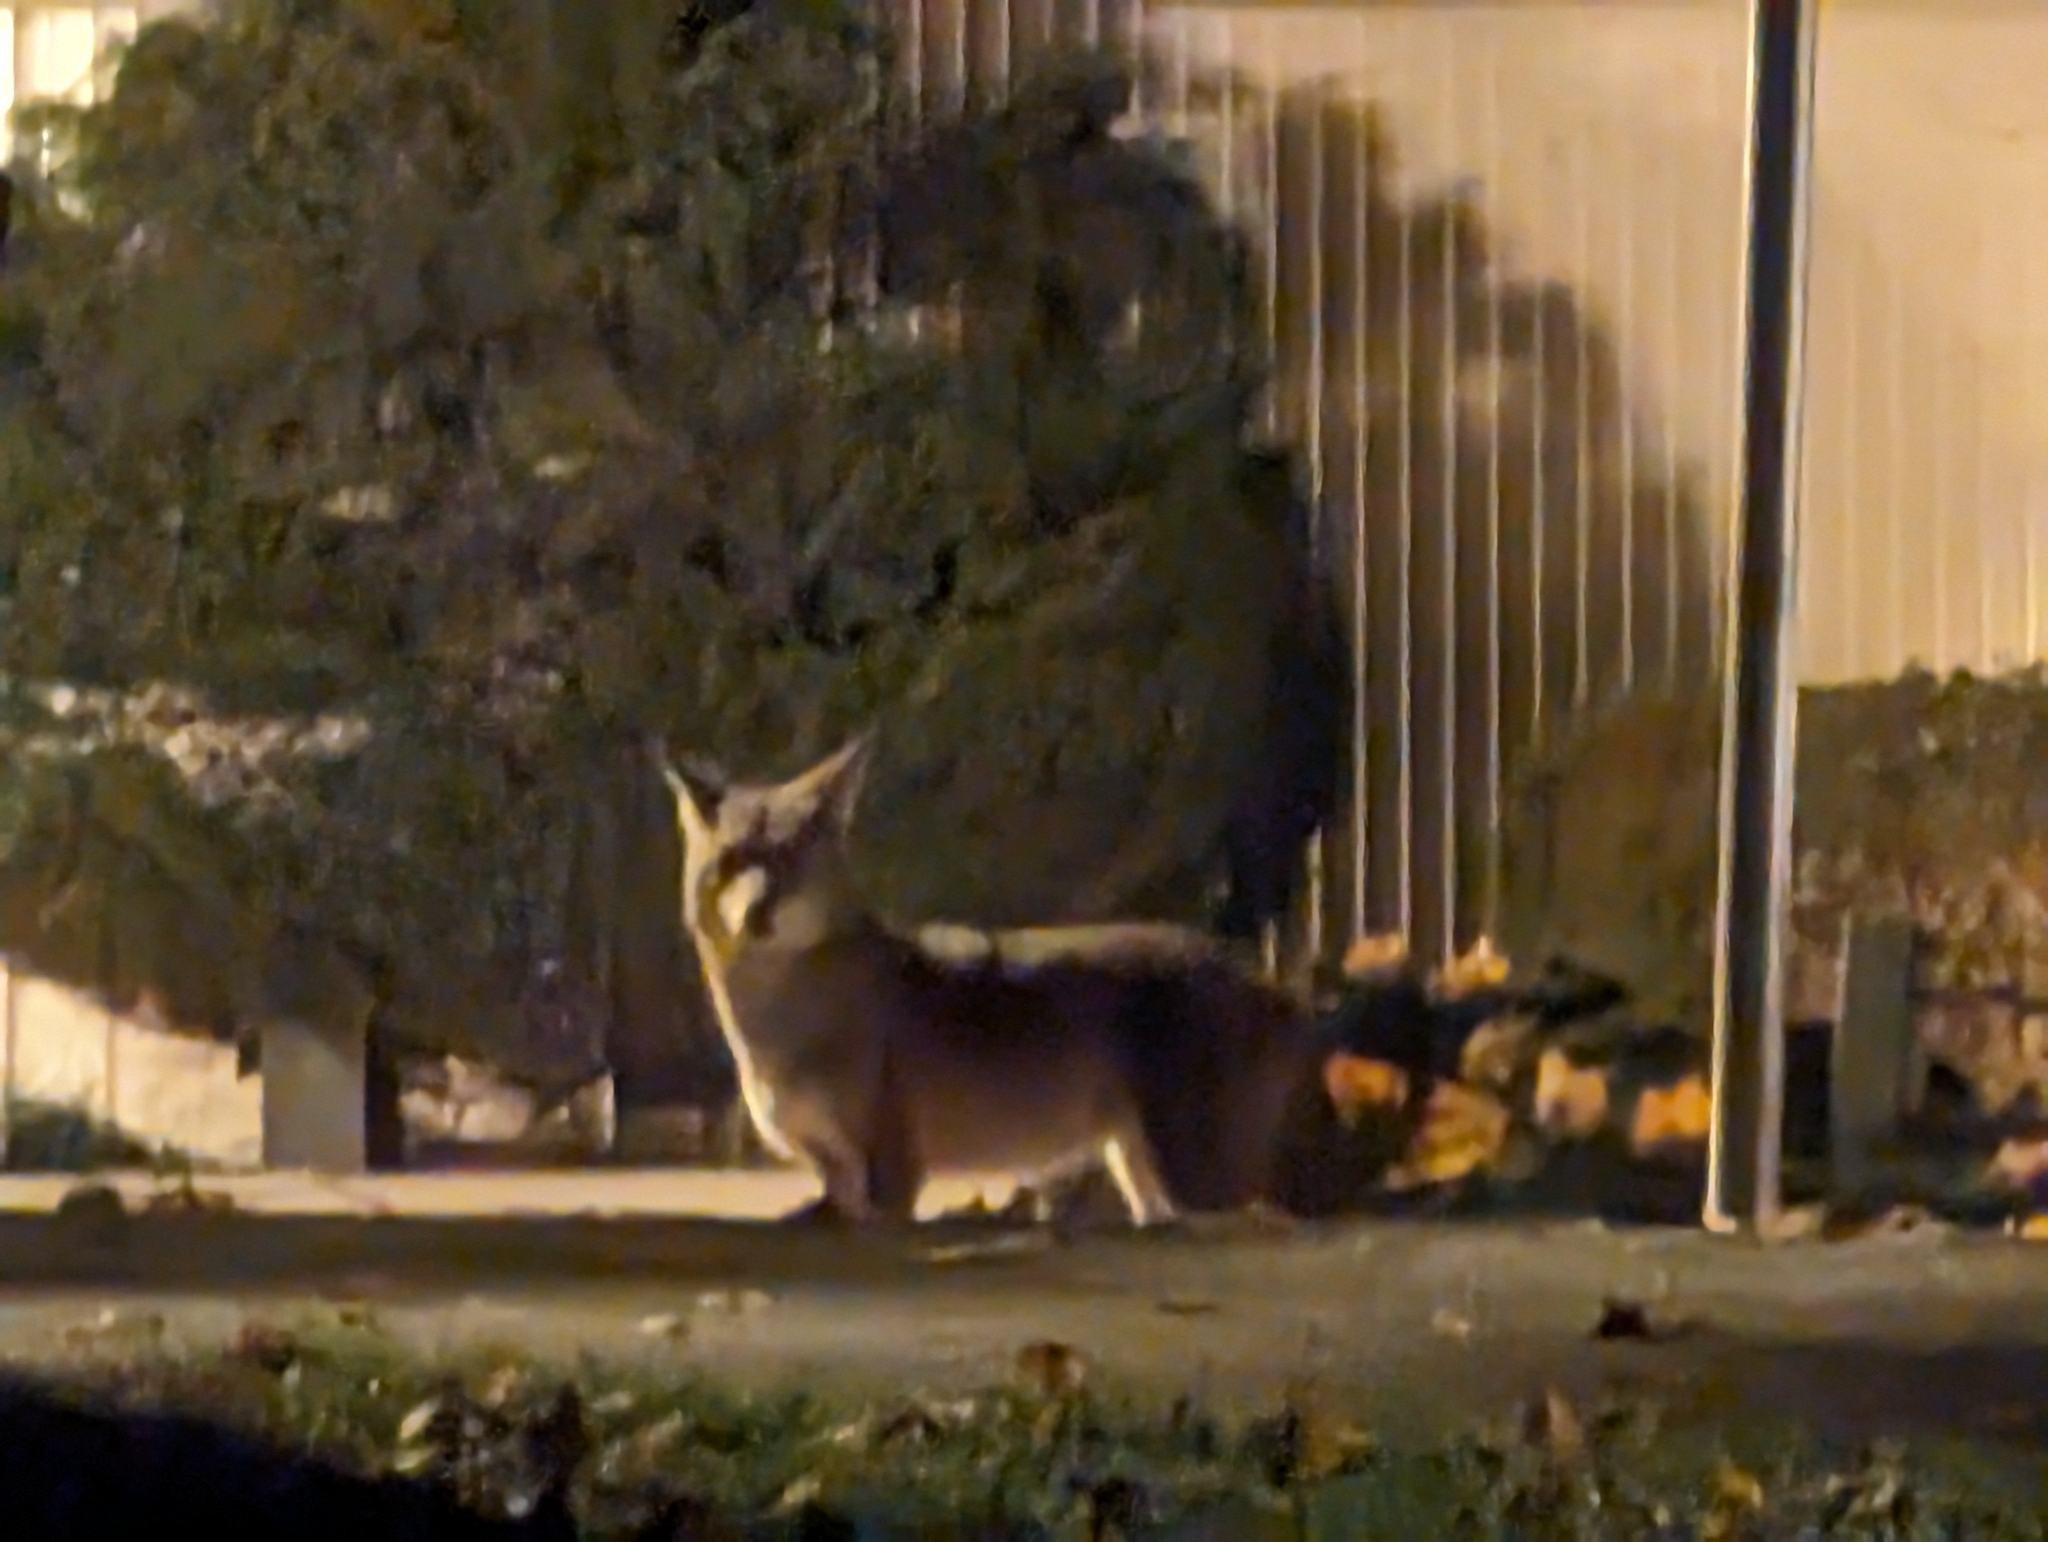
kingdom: Animalia
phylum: Chordata
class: Mammalia
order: Carnivora
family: Canidae
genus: Canis
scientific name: Canis latrans
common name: Coyote
